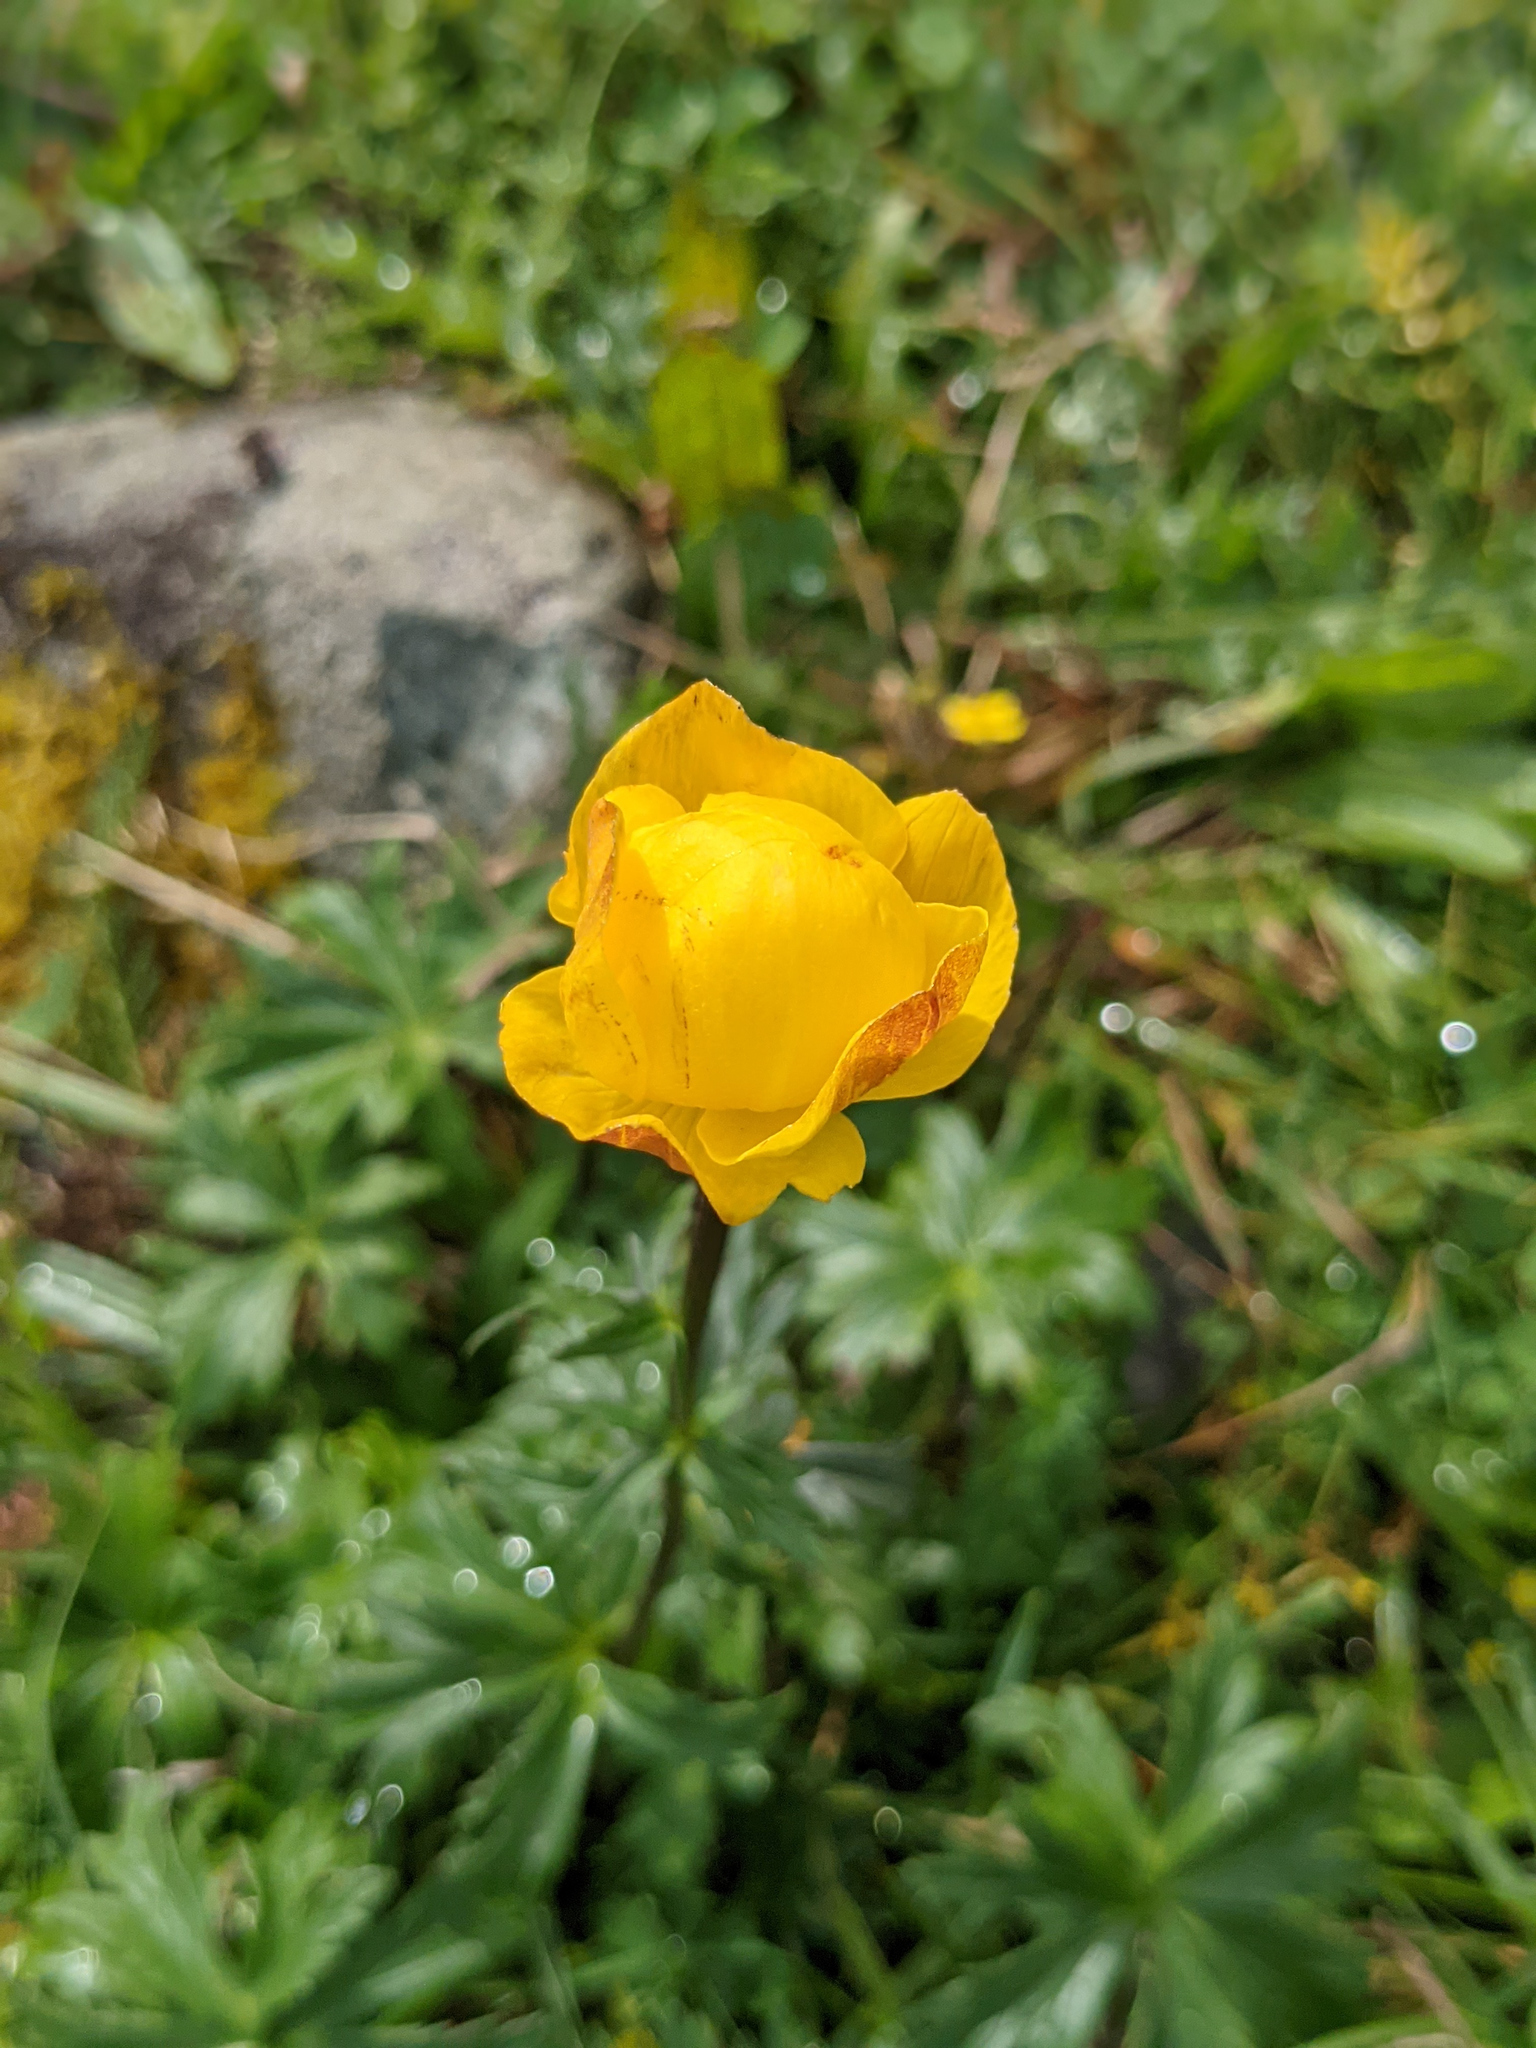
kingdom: Plantae
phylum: Tracheophyta
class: Magnoliopsida
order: Ranunculales
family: Ranunculaceae
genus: Trollius
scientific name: Trollius europaeus
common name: European globeflower
